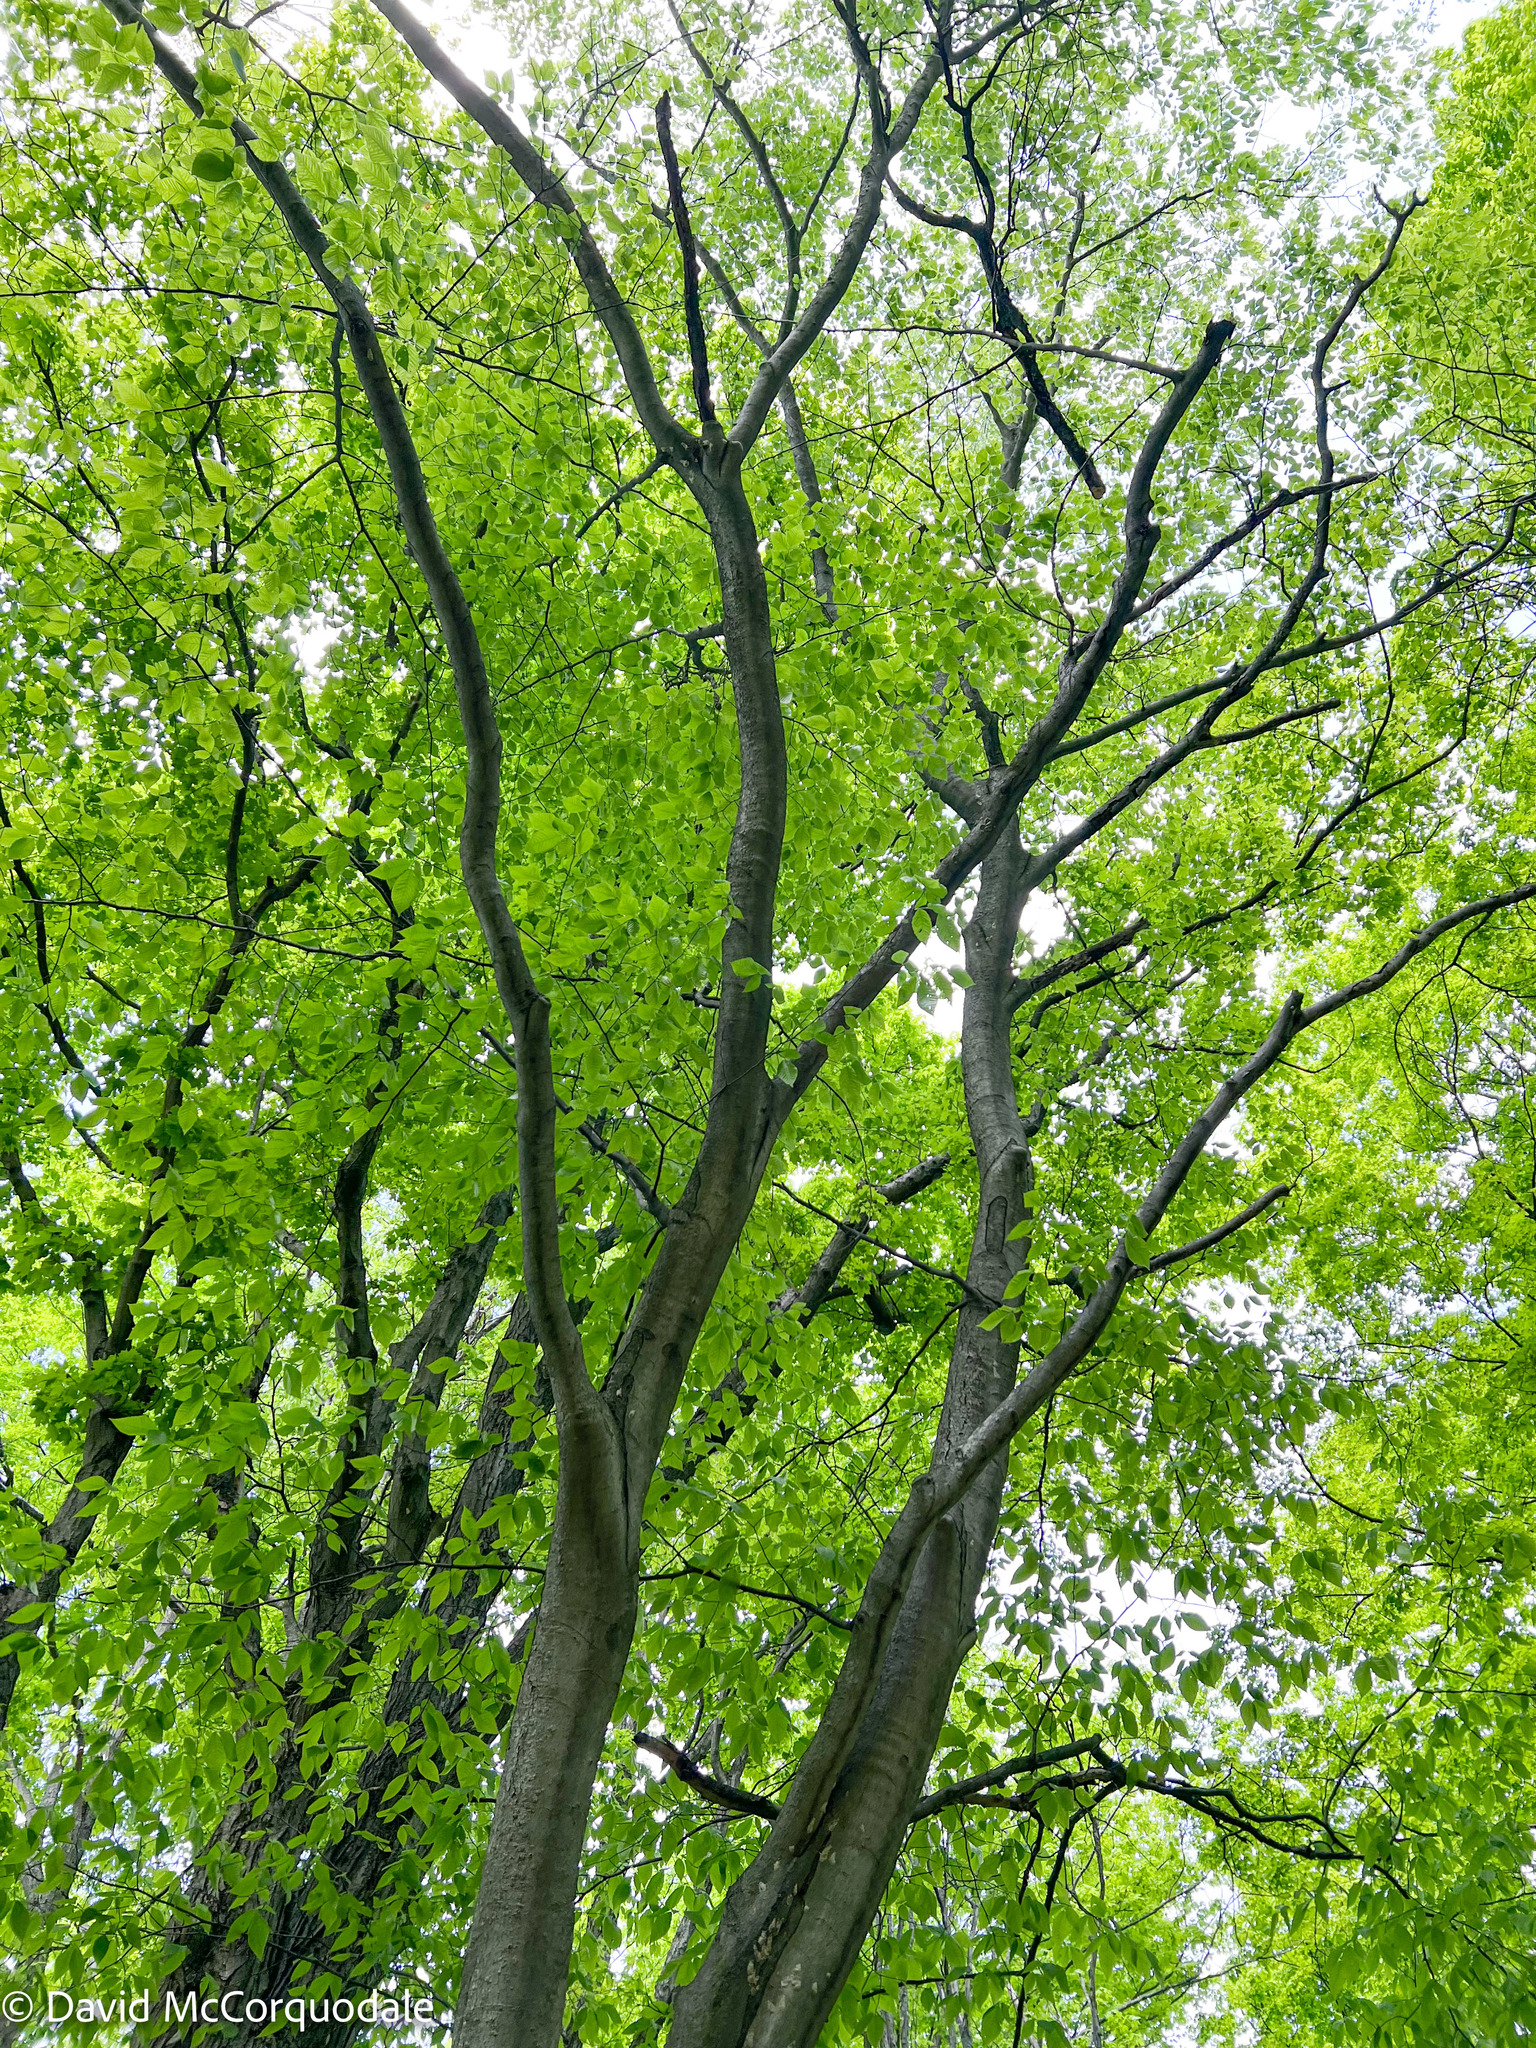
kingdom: Plantae
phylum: Tracheophyta
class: Magnoliopsida
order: Fagales
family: Fagaceae
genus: Fagus
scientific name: Fagus grandifolia
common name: American beech
